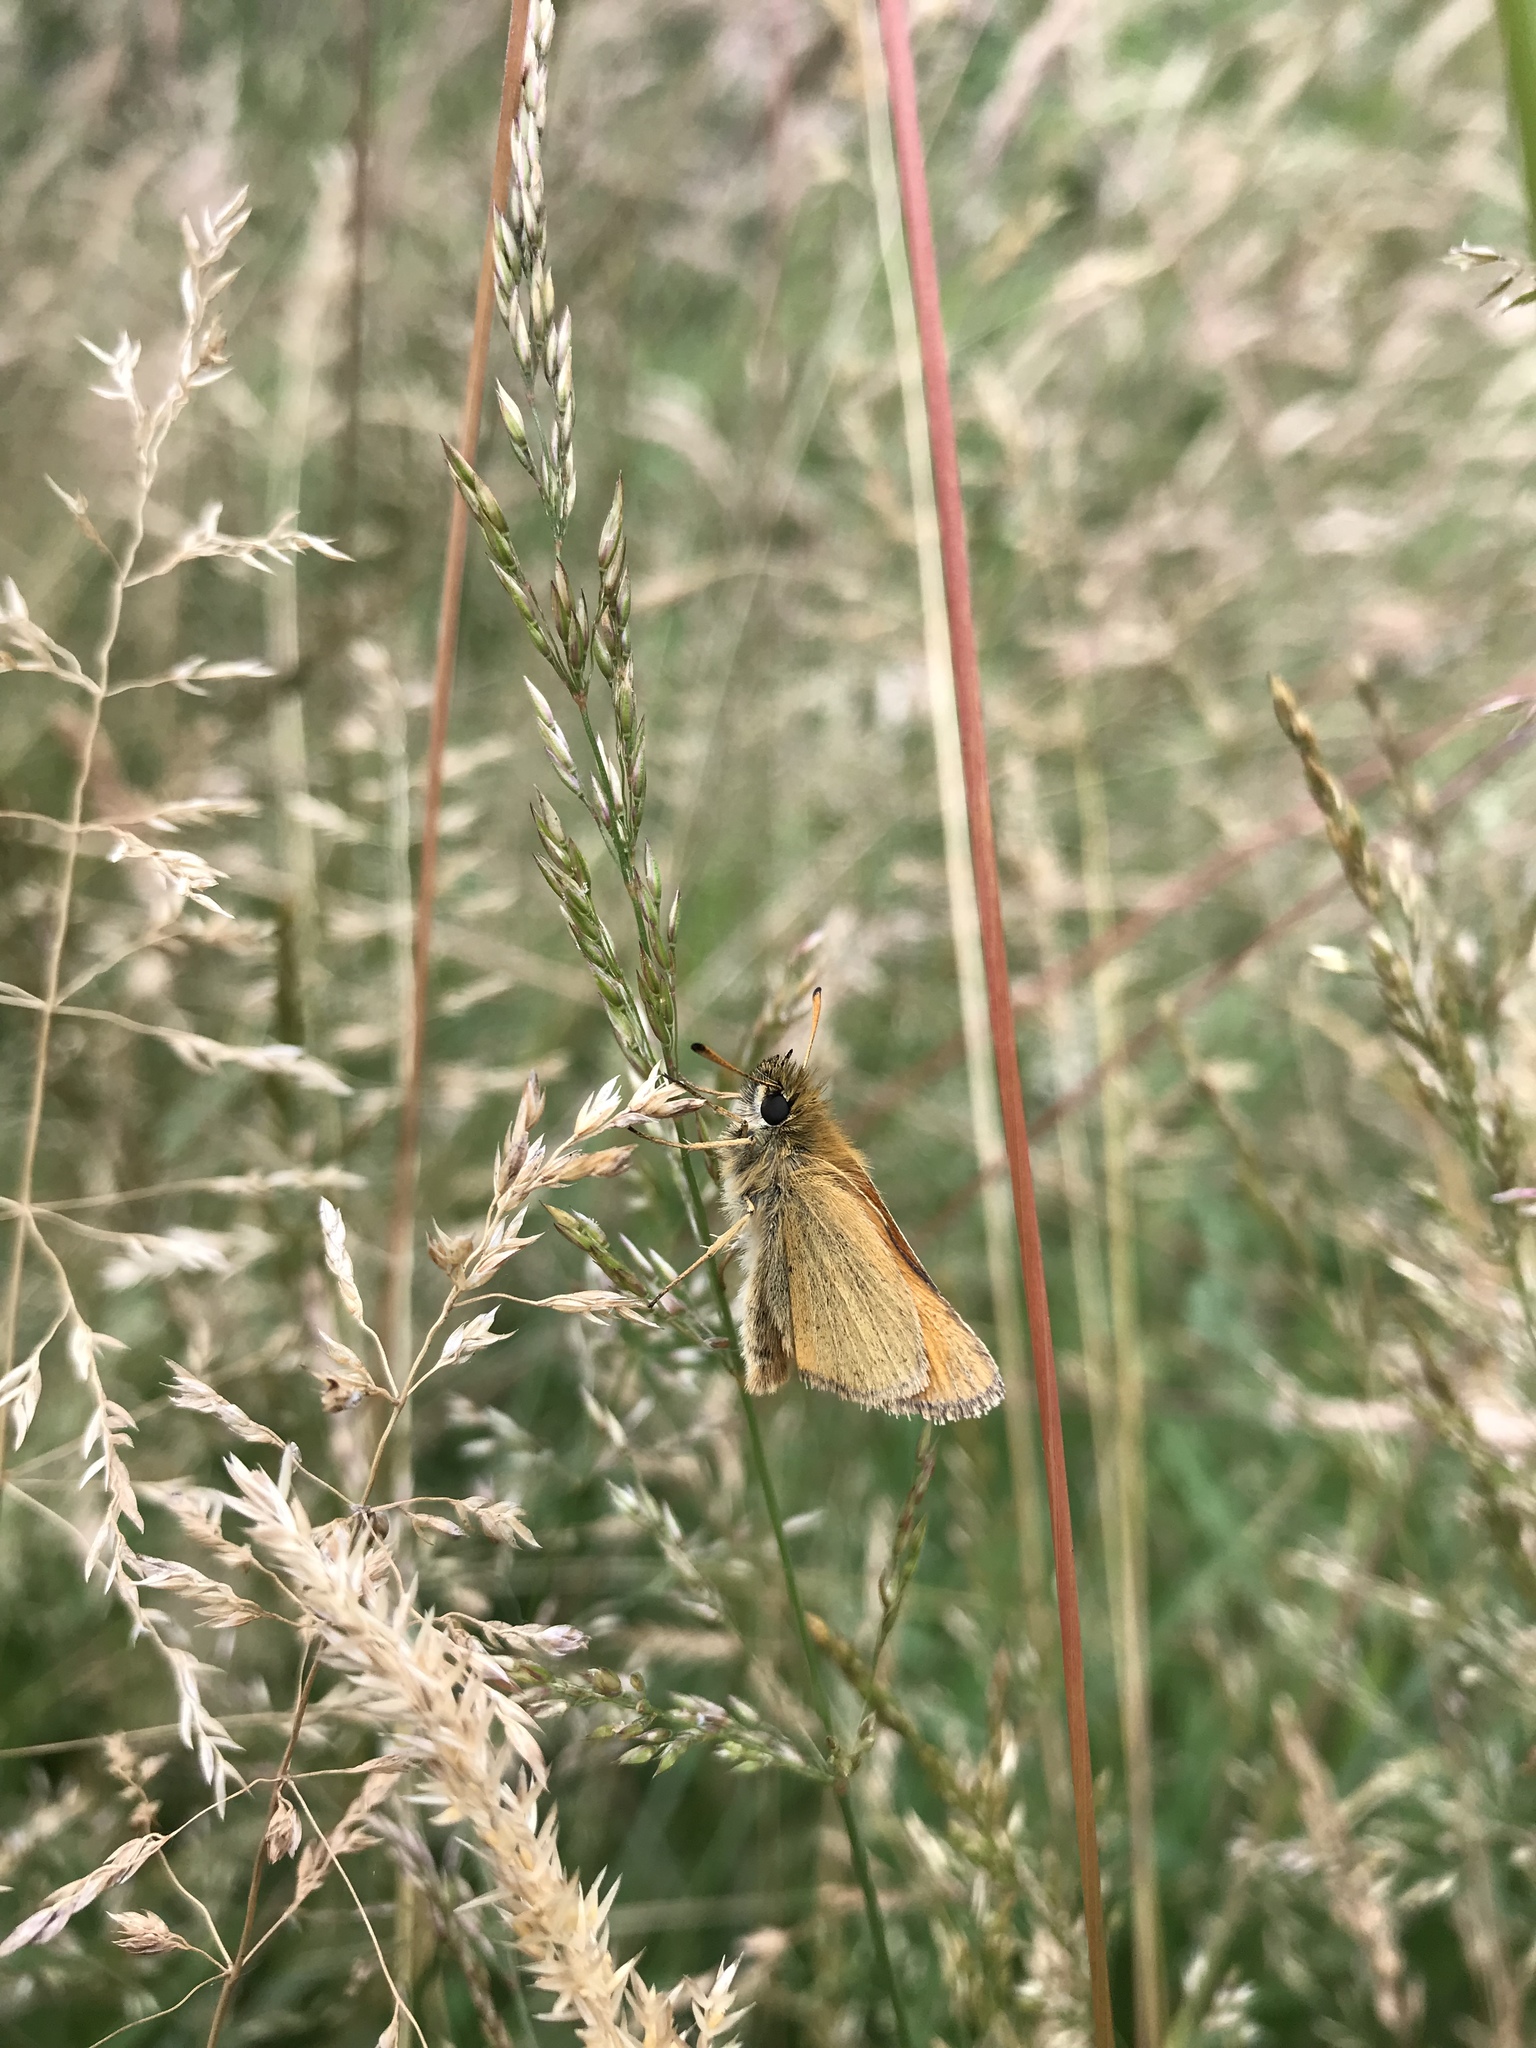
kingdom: Animalia
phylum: Arthropoda
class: Insecta
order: Lepidoptera
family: Hesperiidae
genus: Thymelicus
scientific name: Thymelicus lineola
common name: Essex skipper
